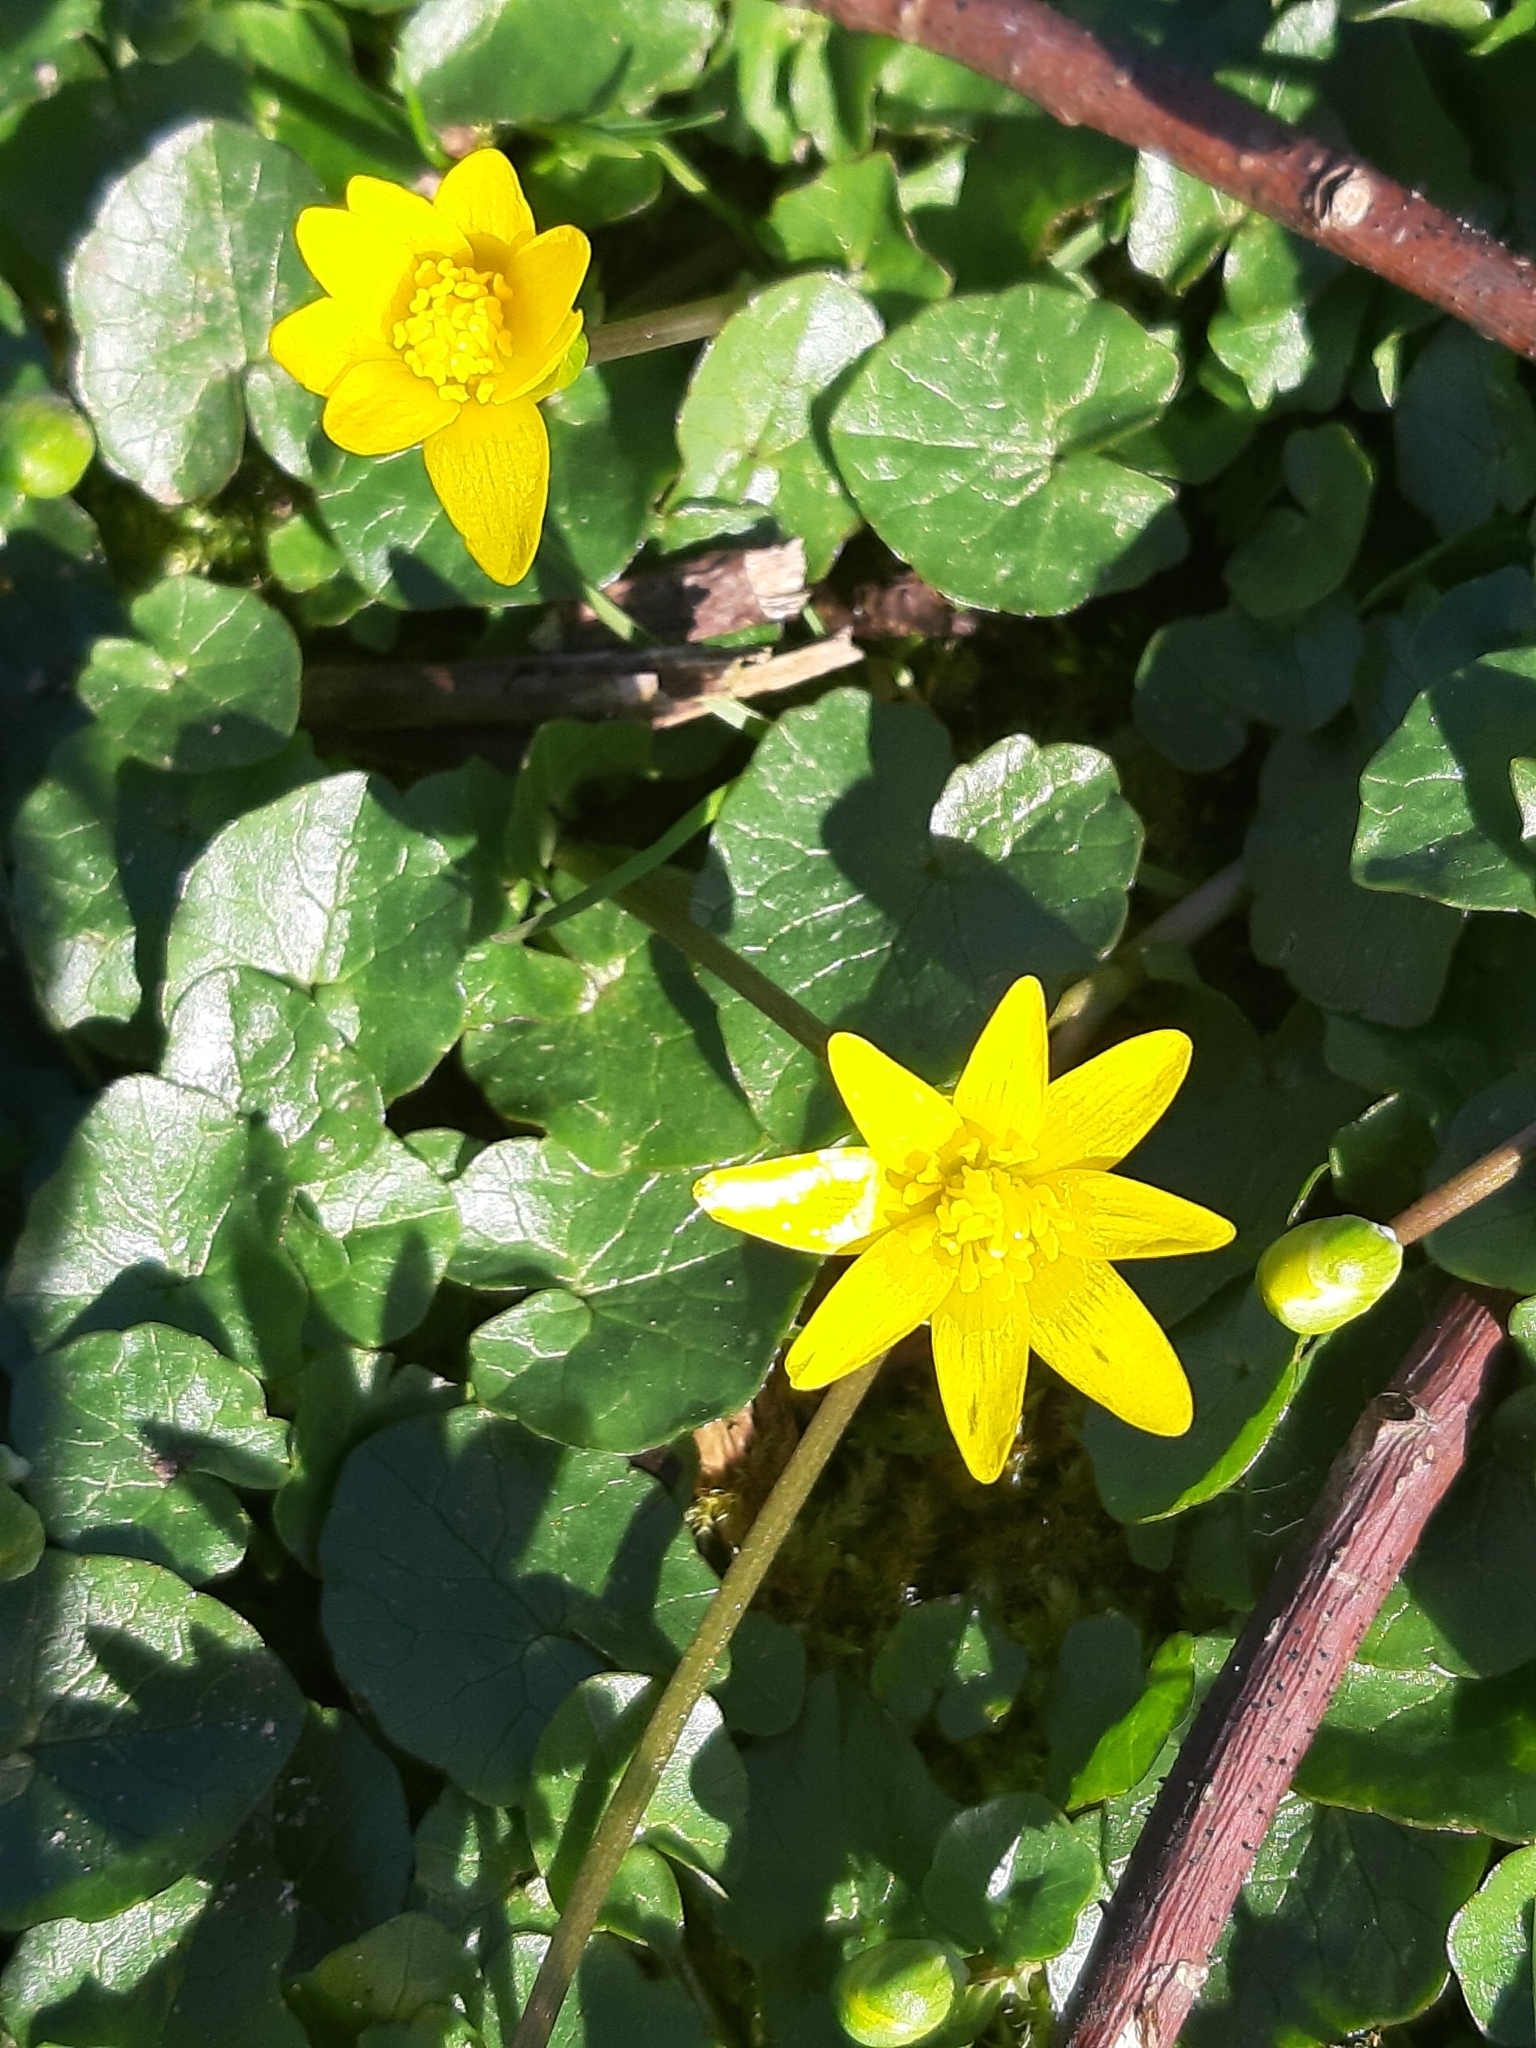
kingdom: Plantae
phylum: Tracheophyta
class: Magnoliopsida
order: Ranunculales
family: Ranunculaceae
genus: Ficaria
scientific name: Ficaria verna
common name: Lesser celandine
